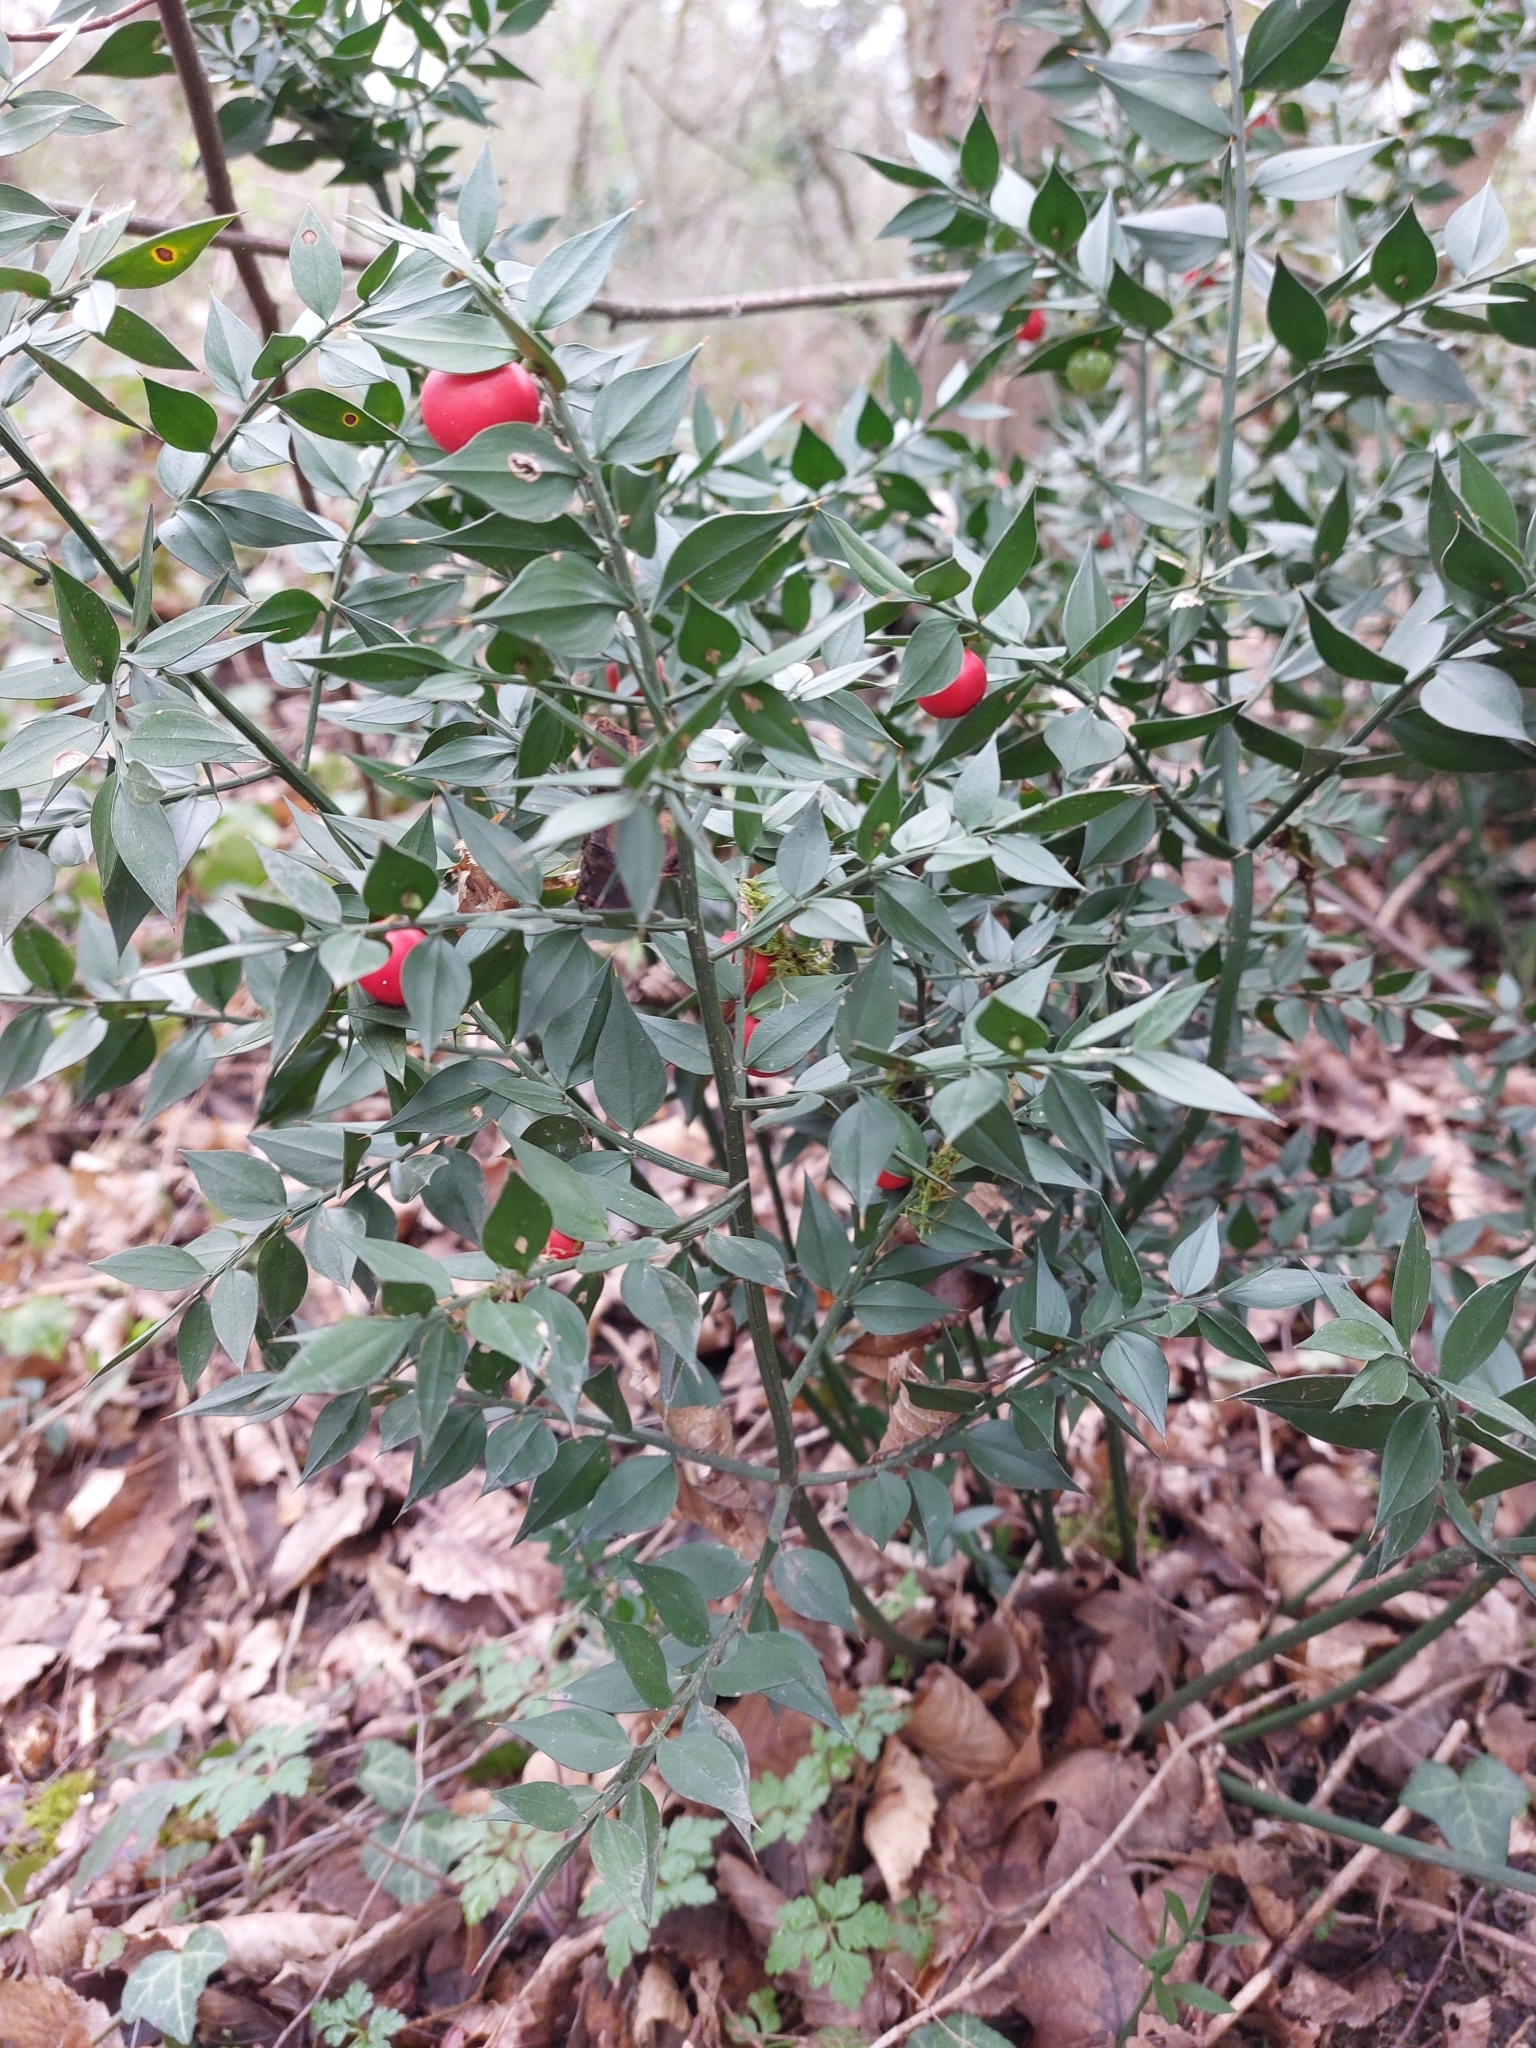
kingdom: Plantae
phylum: Tracheophyta
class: Liliopsida
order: Asparagales
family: Asparagaceae
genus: Ruscus
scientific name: Ruscus aculeatus
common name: Butcher's-broom
